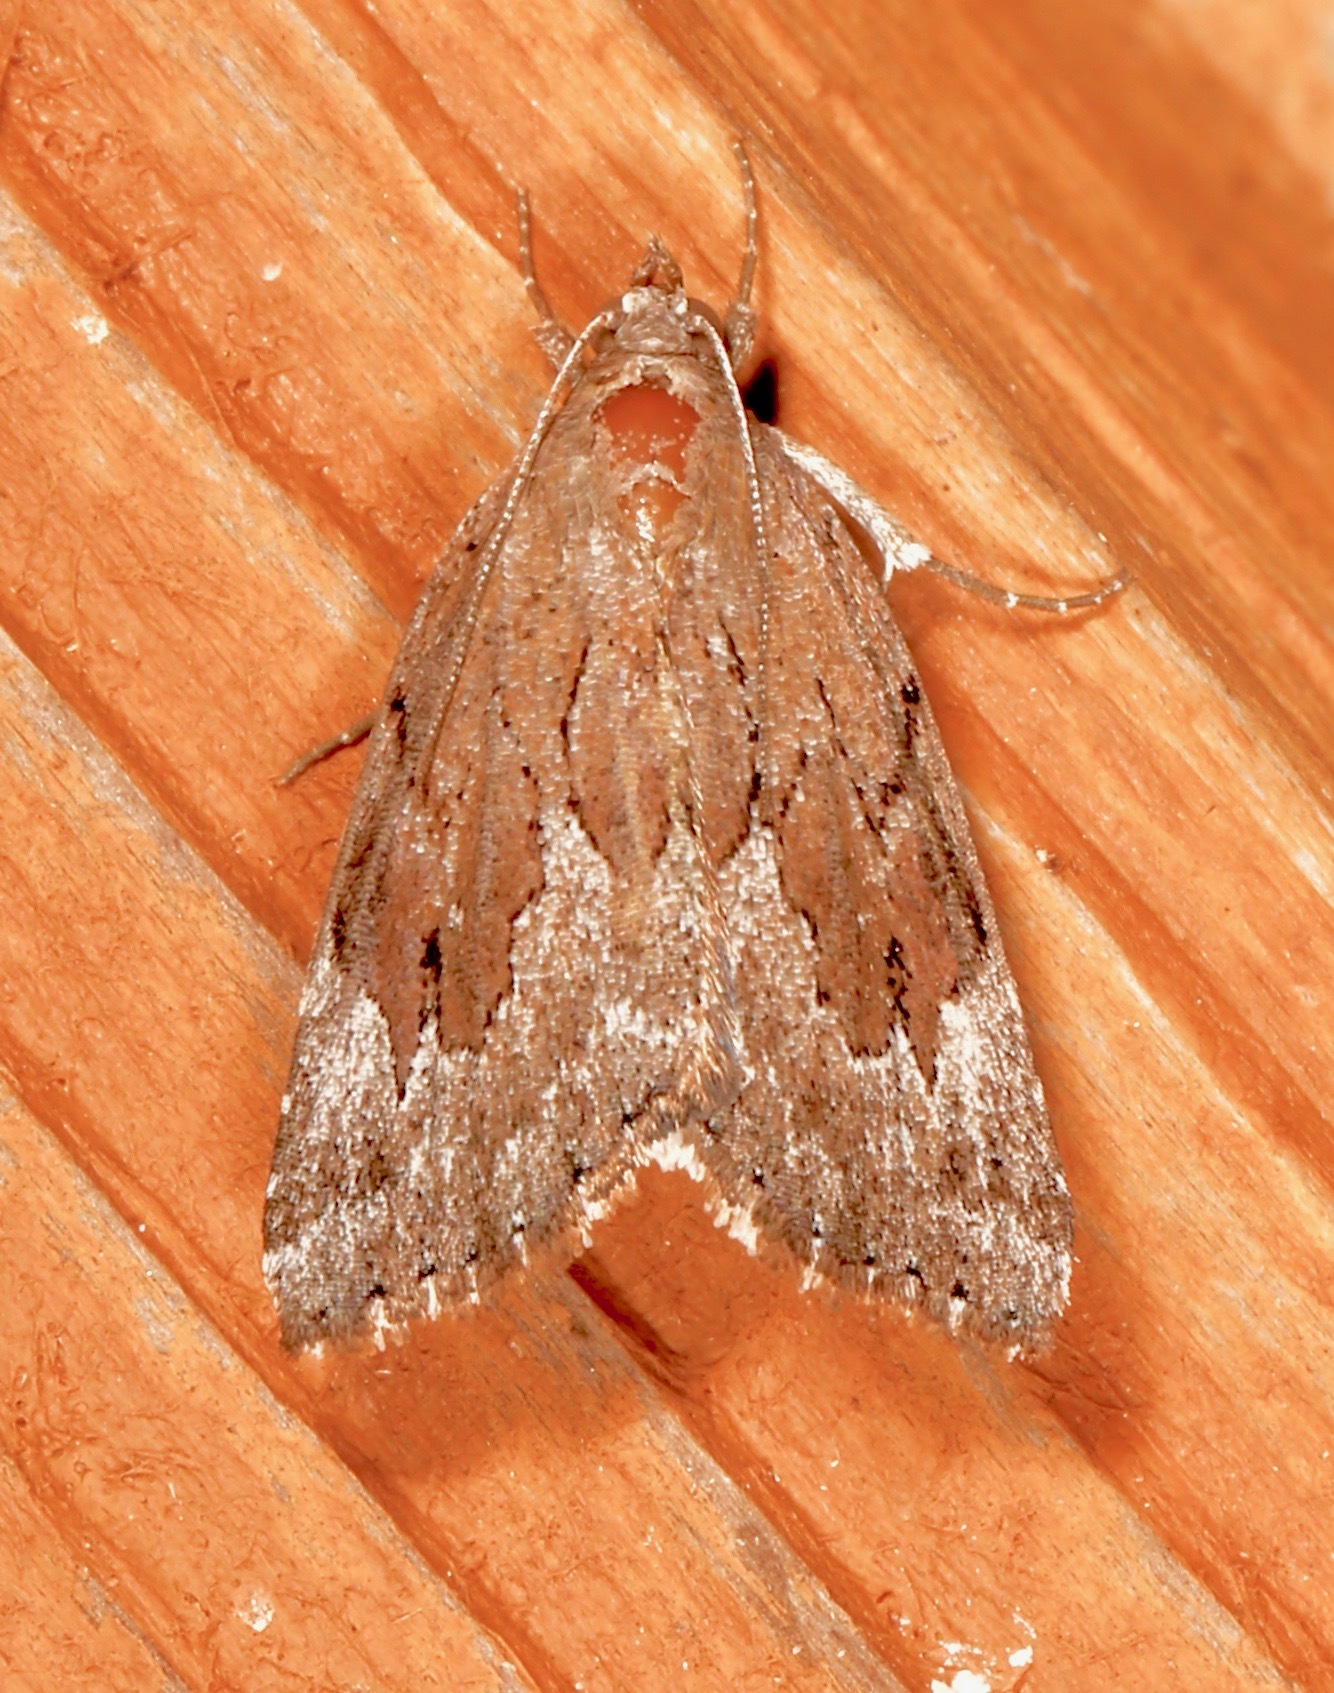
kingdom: Animalia
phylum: Arthropoda
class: Insecta
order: Lepidoptera
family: Erebidae
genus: Cutina
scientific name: Cutina albopunctella
